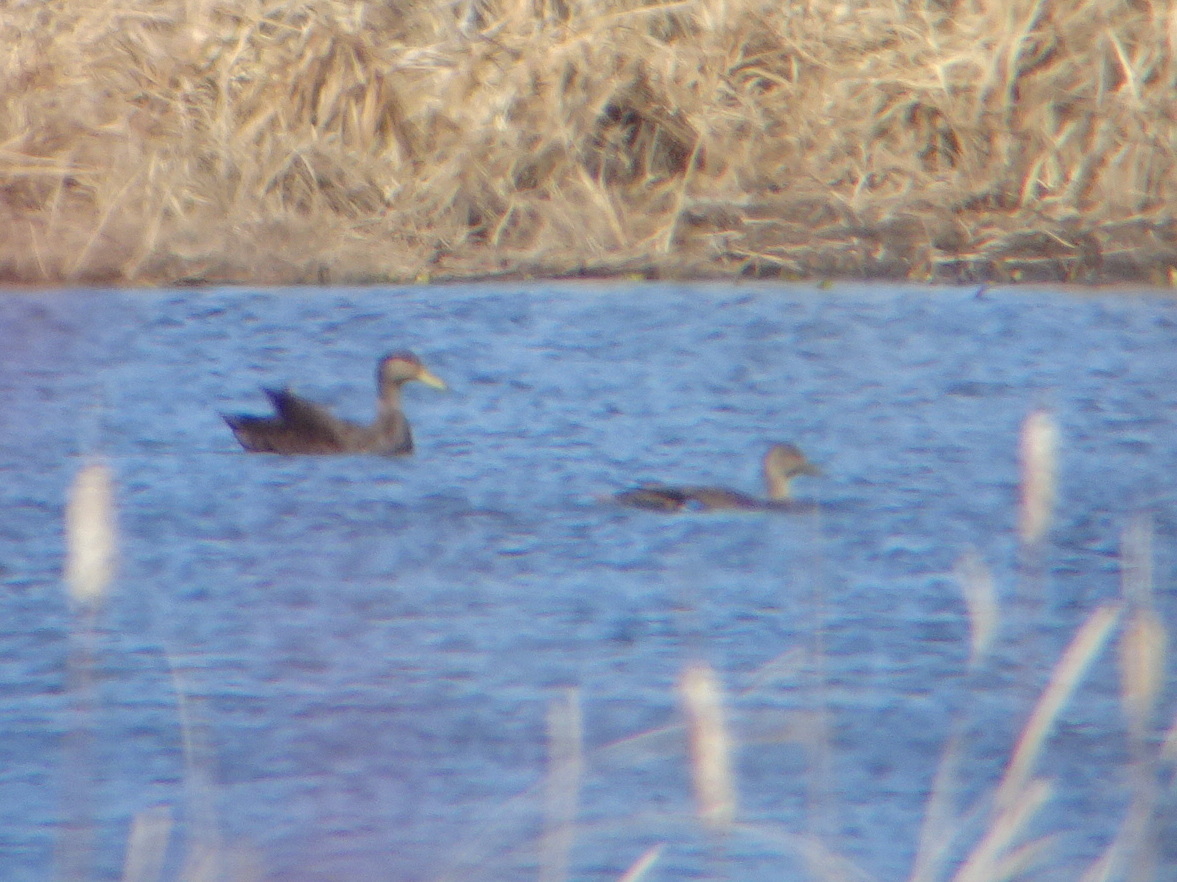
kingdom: Animalia
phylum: Chordata
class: Aves
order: Anseriformes
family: Anatidae
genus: Anas
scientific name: Anas rubripes
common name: American black duck
